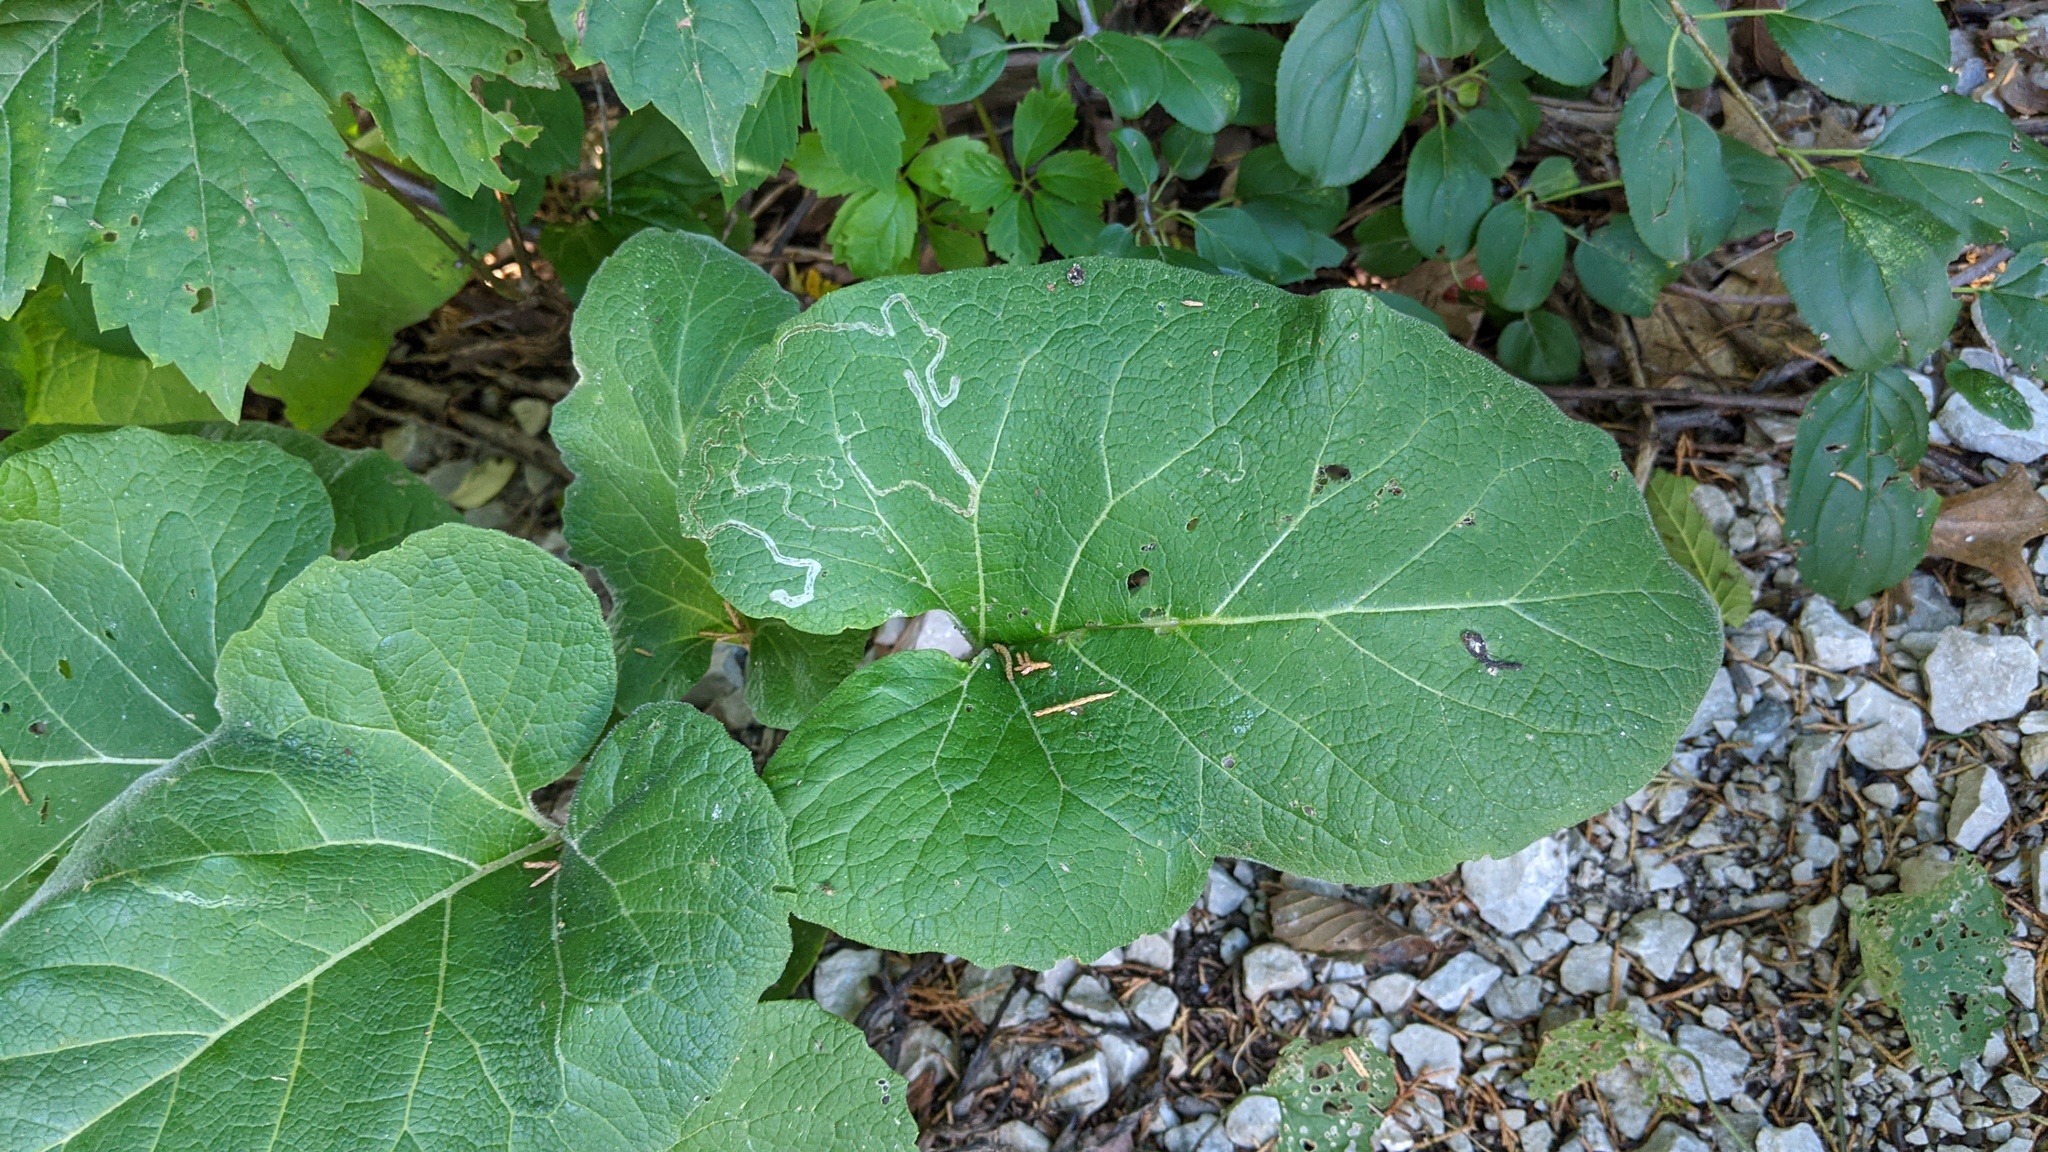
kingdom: Animalia
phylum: Arthropoda
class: Insecta
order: Diptera
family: Agromyzidae
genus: Liriomyza
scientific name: Liriomyza arctii
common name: Burdock leafminer
